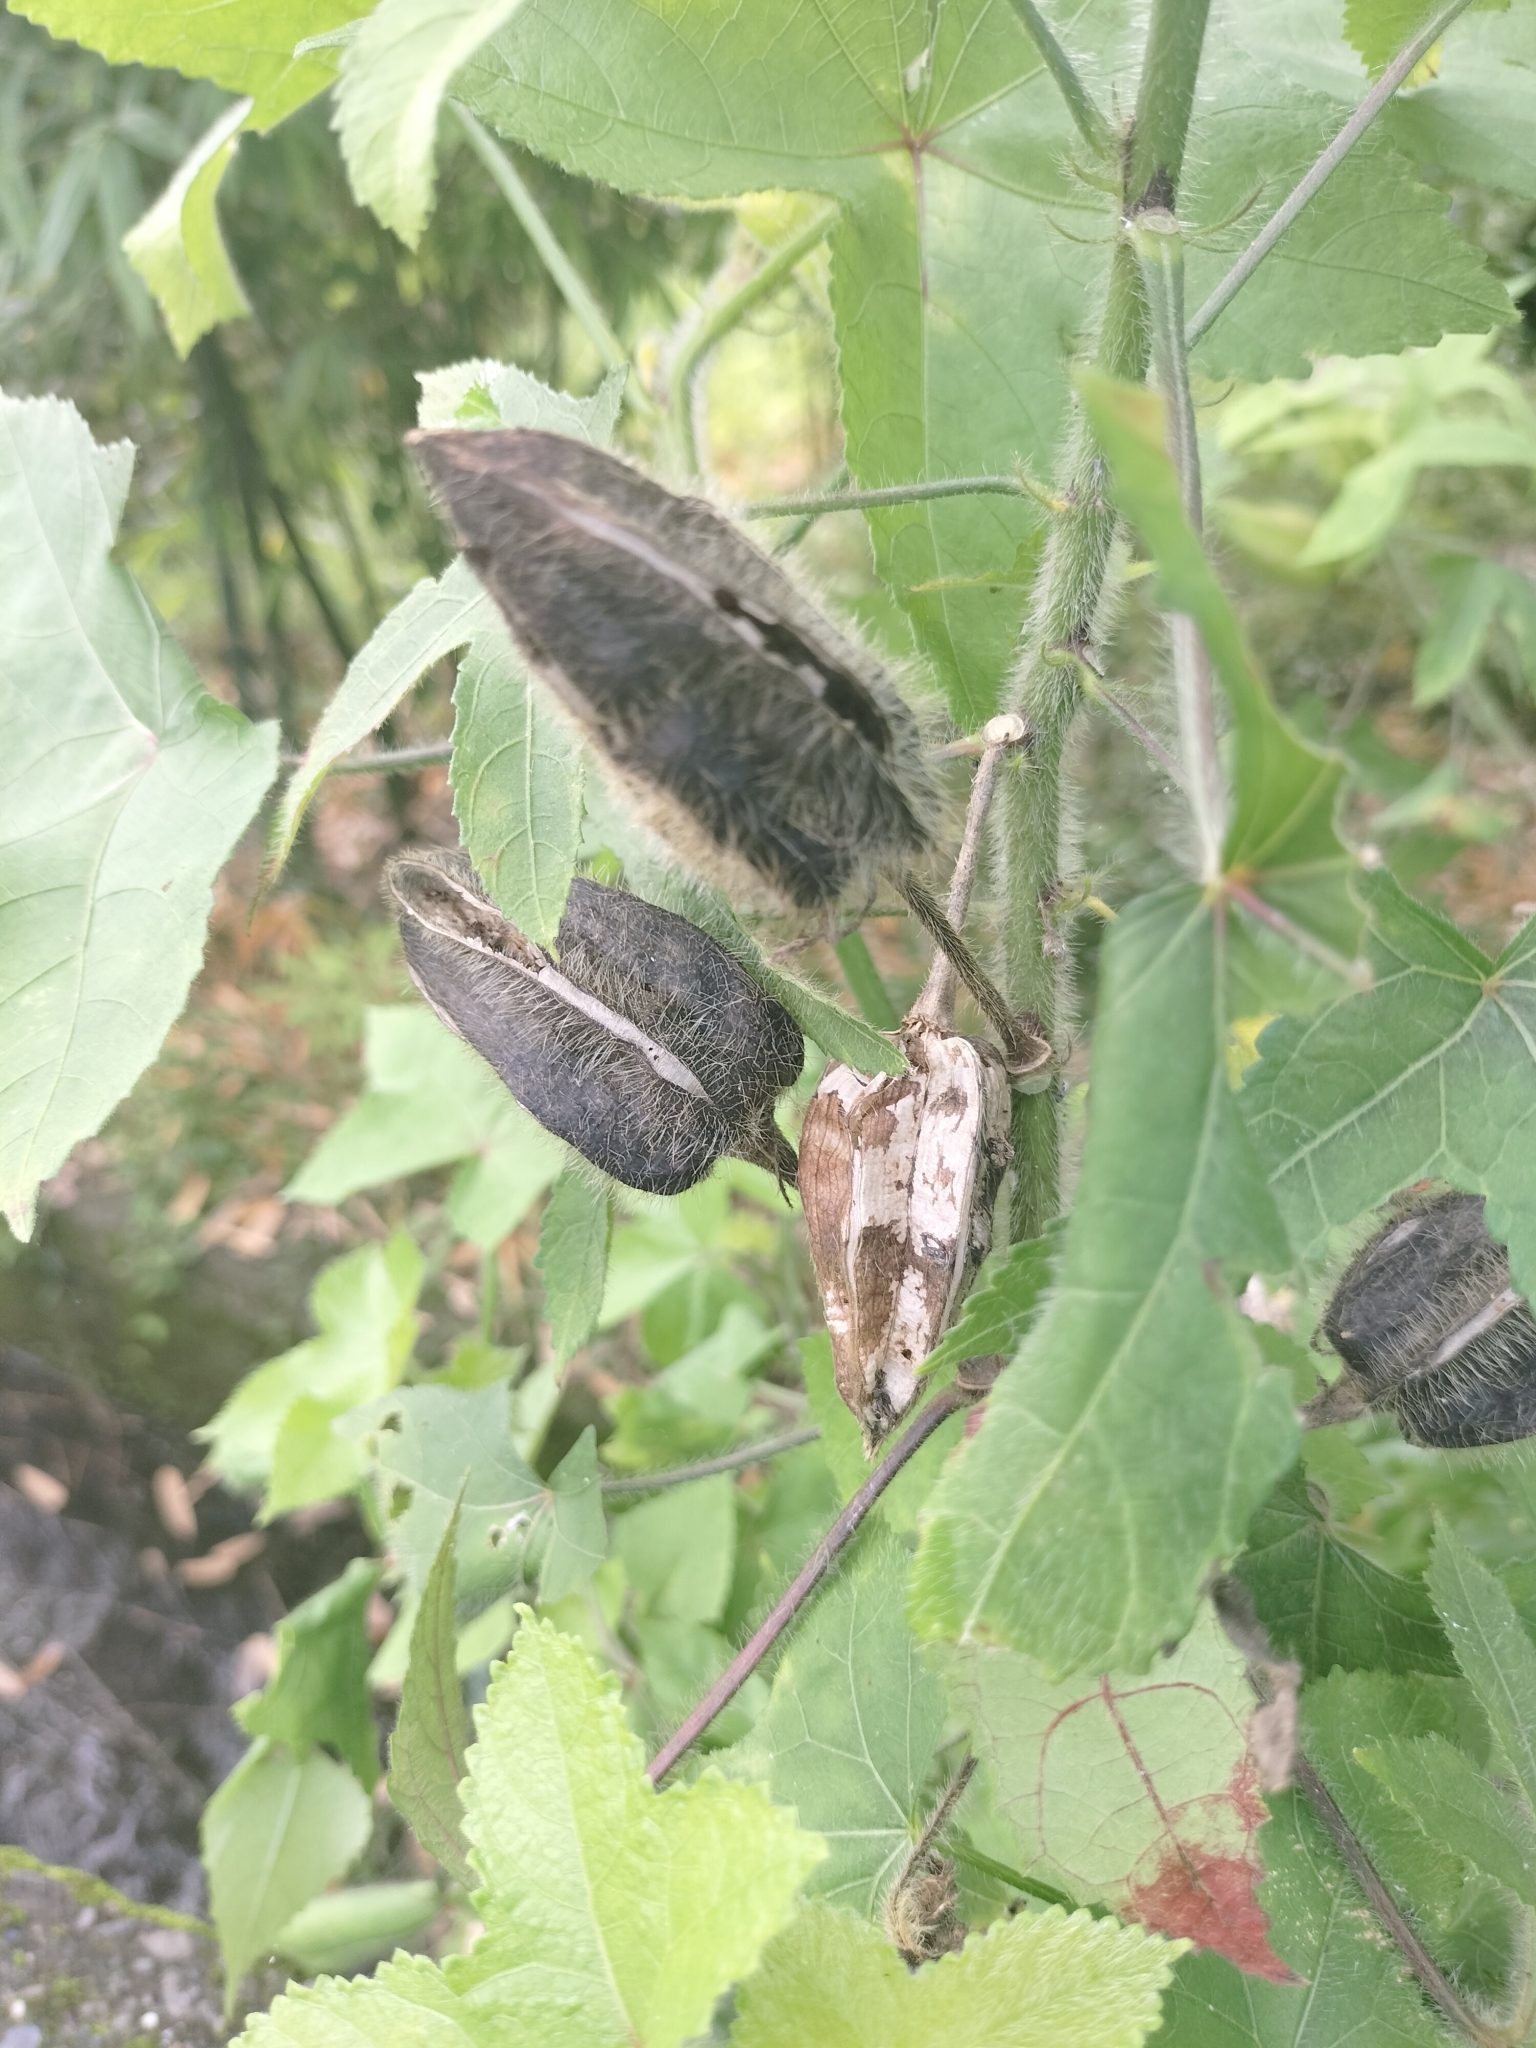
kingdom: Plantae
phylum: Tracheophyta
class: Magnoliopsida
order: Malvales
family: Malvaceae
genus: Abelmoschus
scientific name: Abelmoschus moschatus
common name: Musk okra
